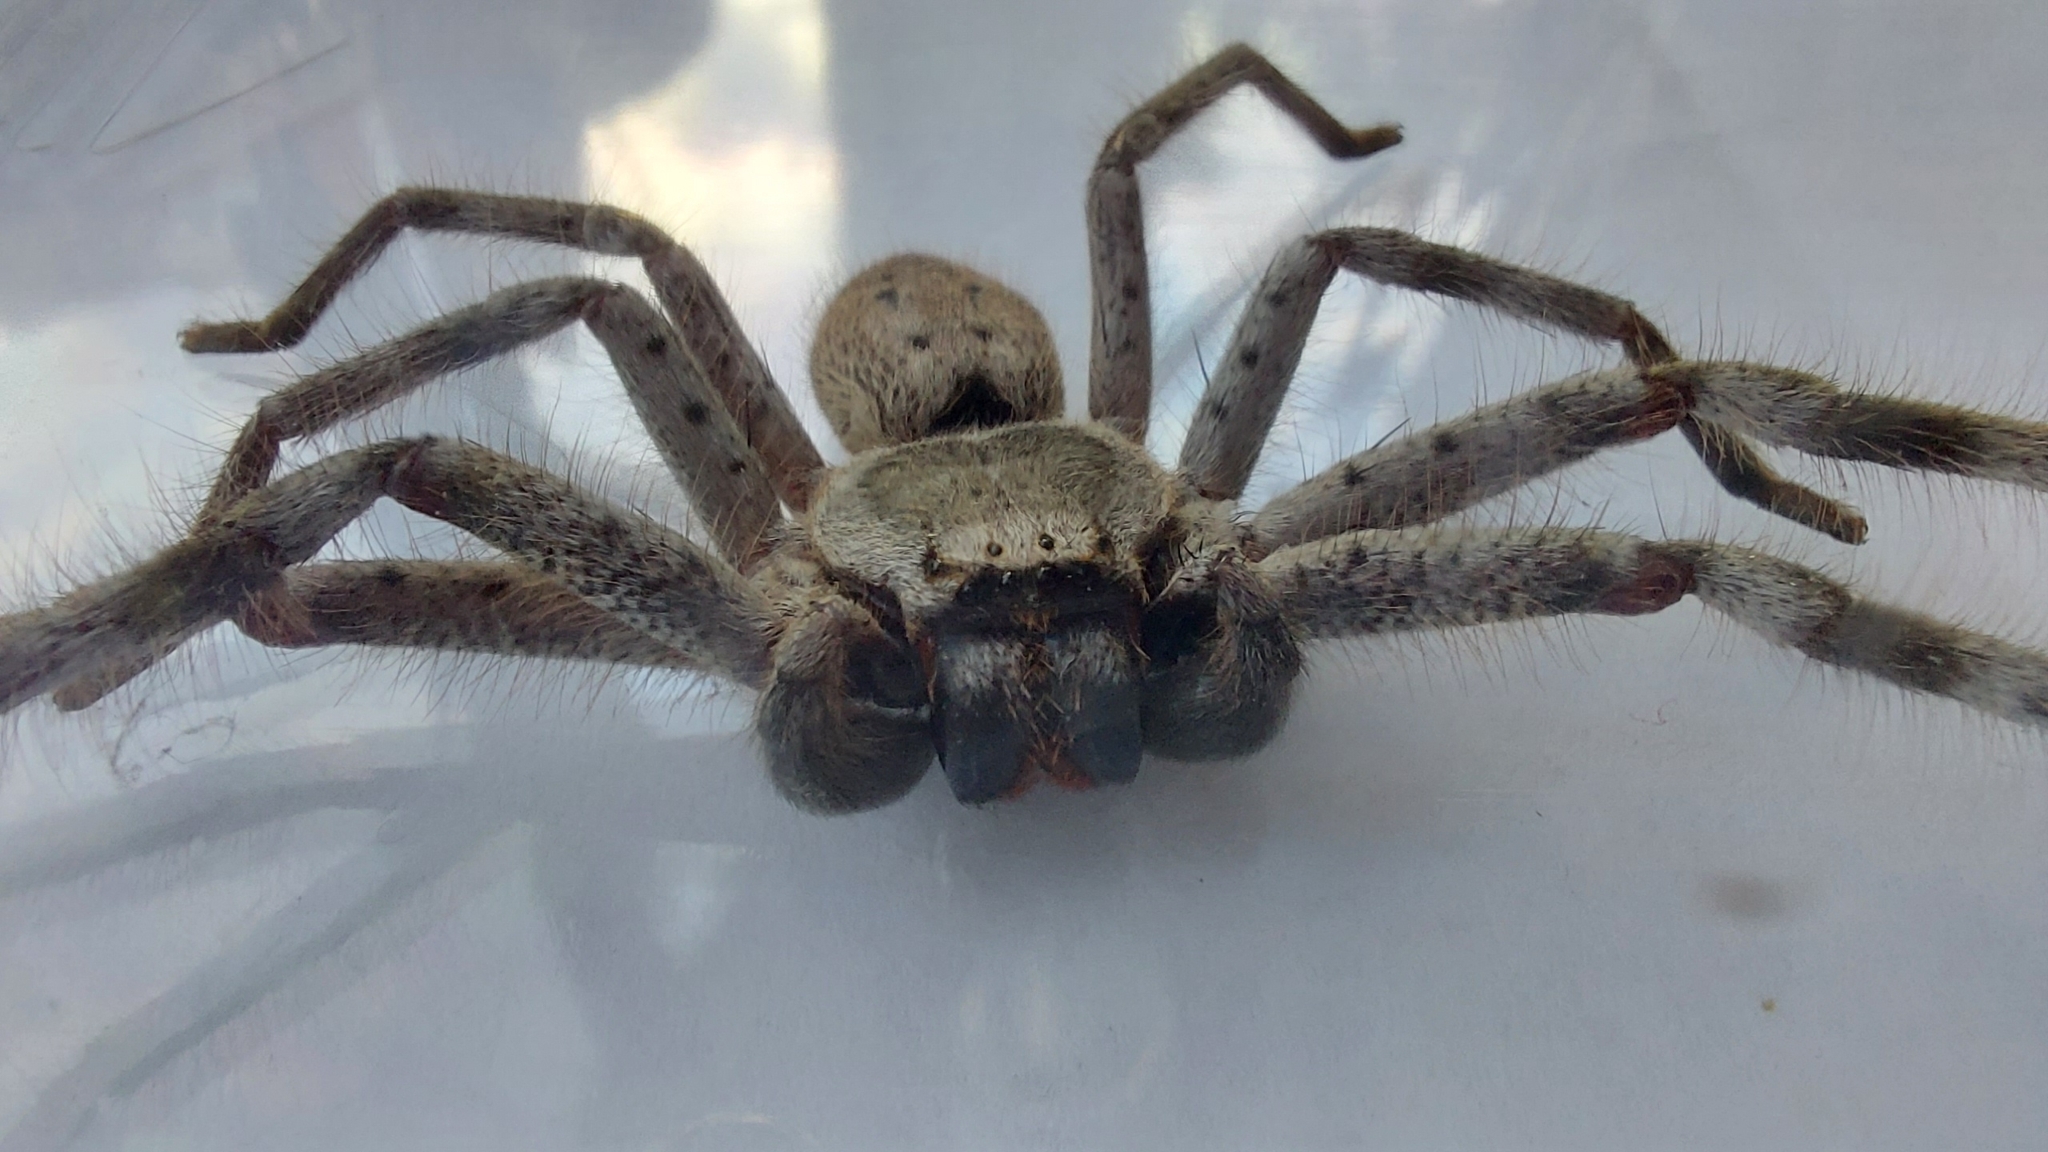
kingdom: Animalia
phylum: Arthropoda
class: Arachnida
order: Araneae
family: Sparassidae
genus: Isopeda
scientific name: Isopeda montana
